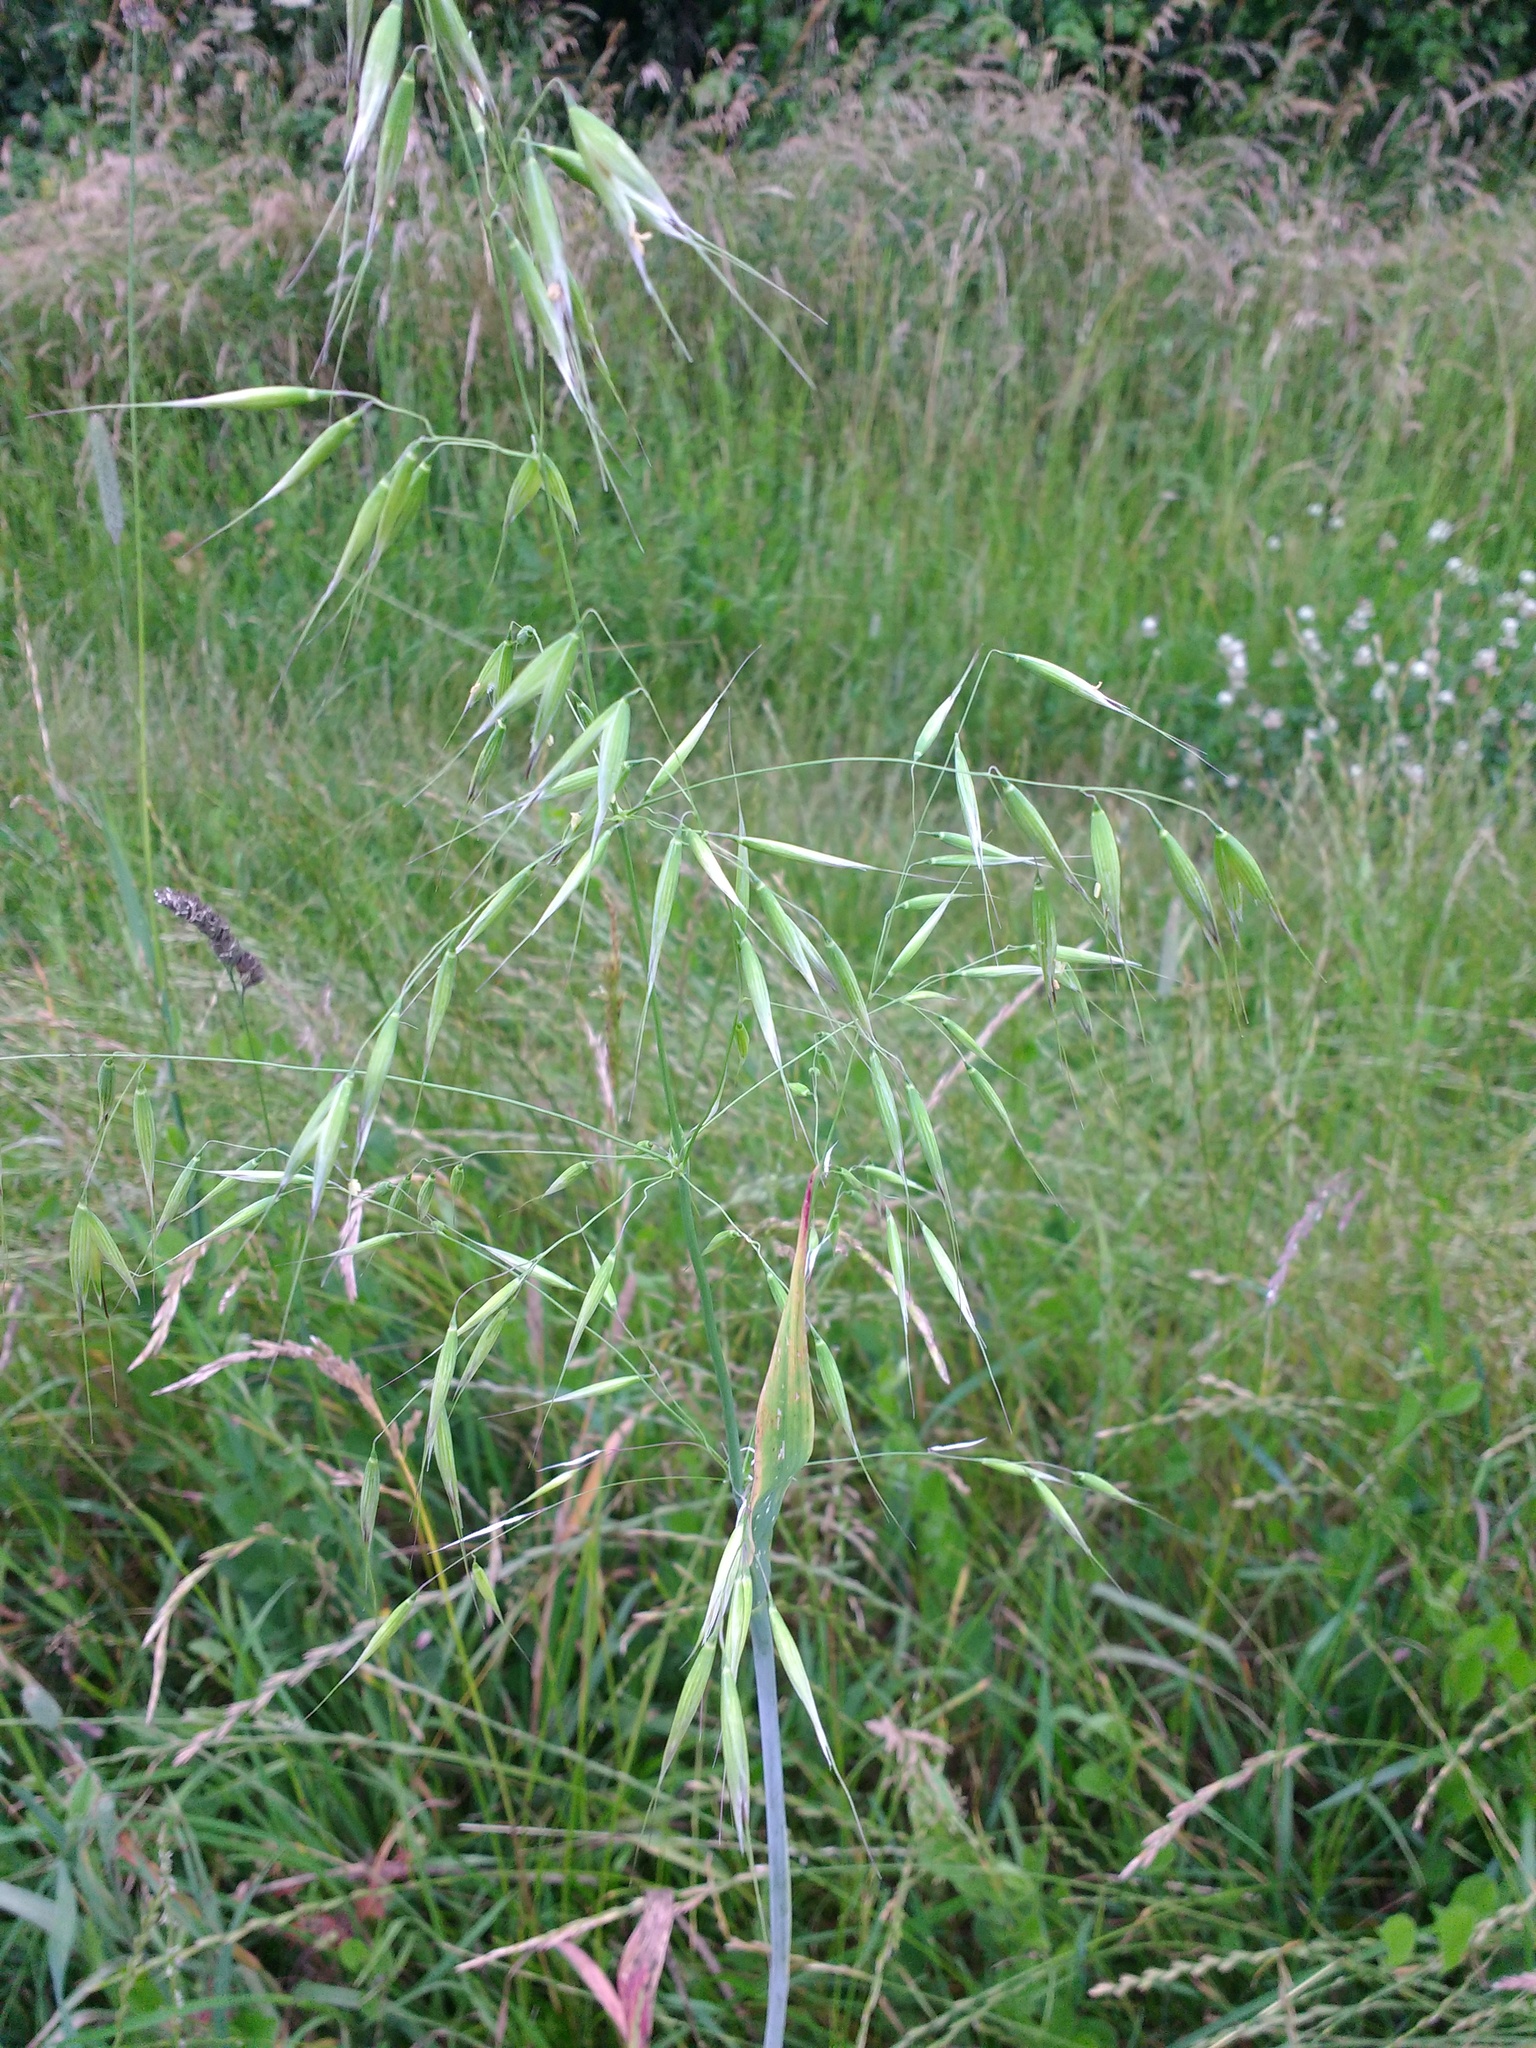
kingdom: Plantae
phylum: Tracheophyta
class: Liliopsida
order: Poales
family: Poaceae
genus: Avena
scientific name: Avena fatua
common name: Wild oat
